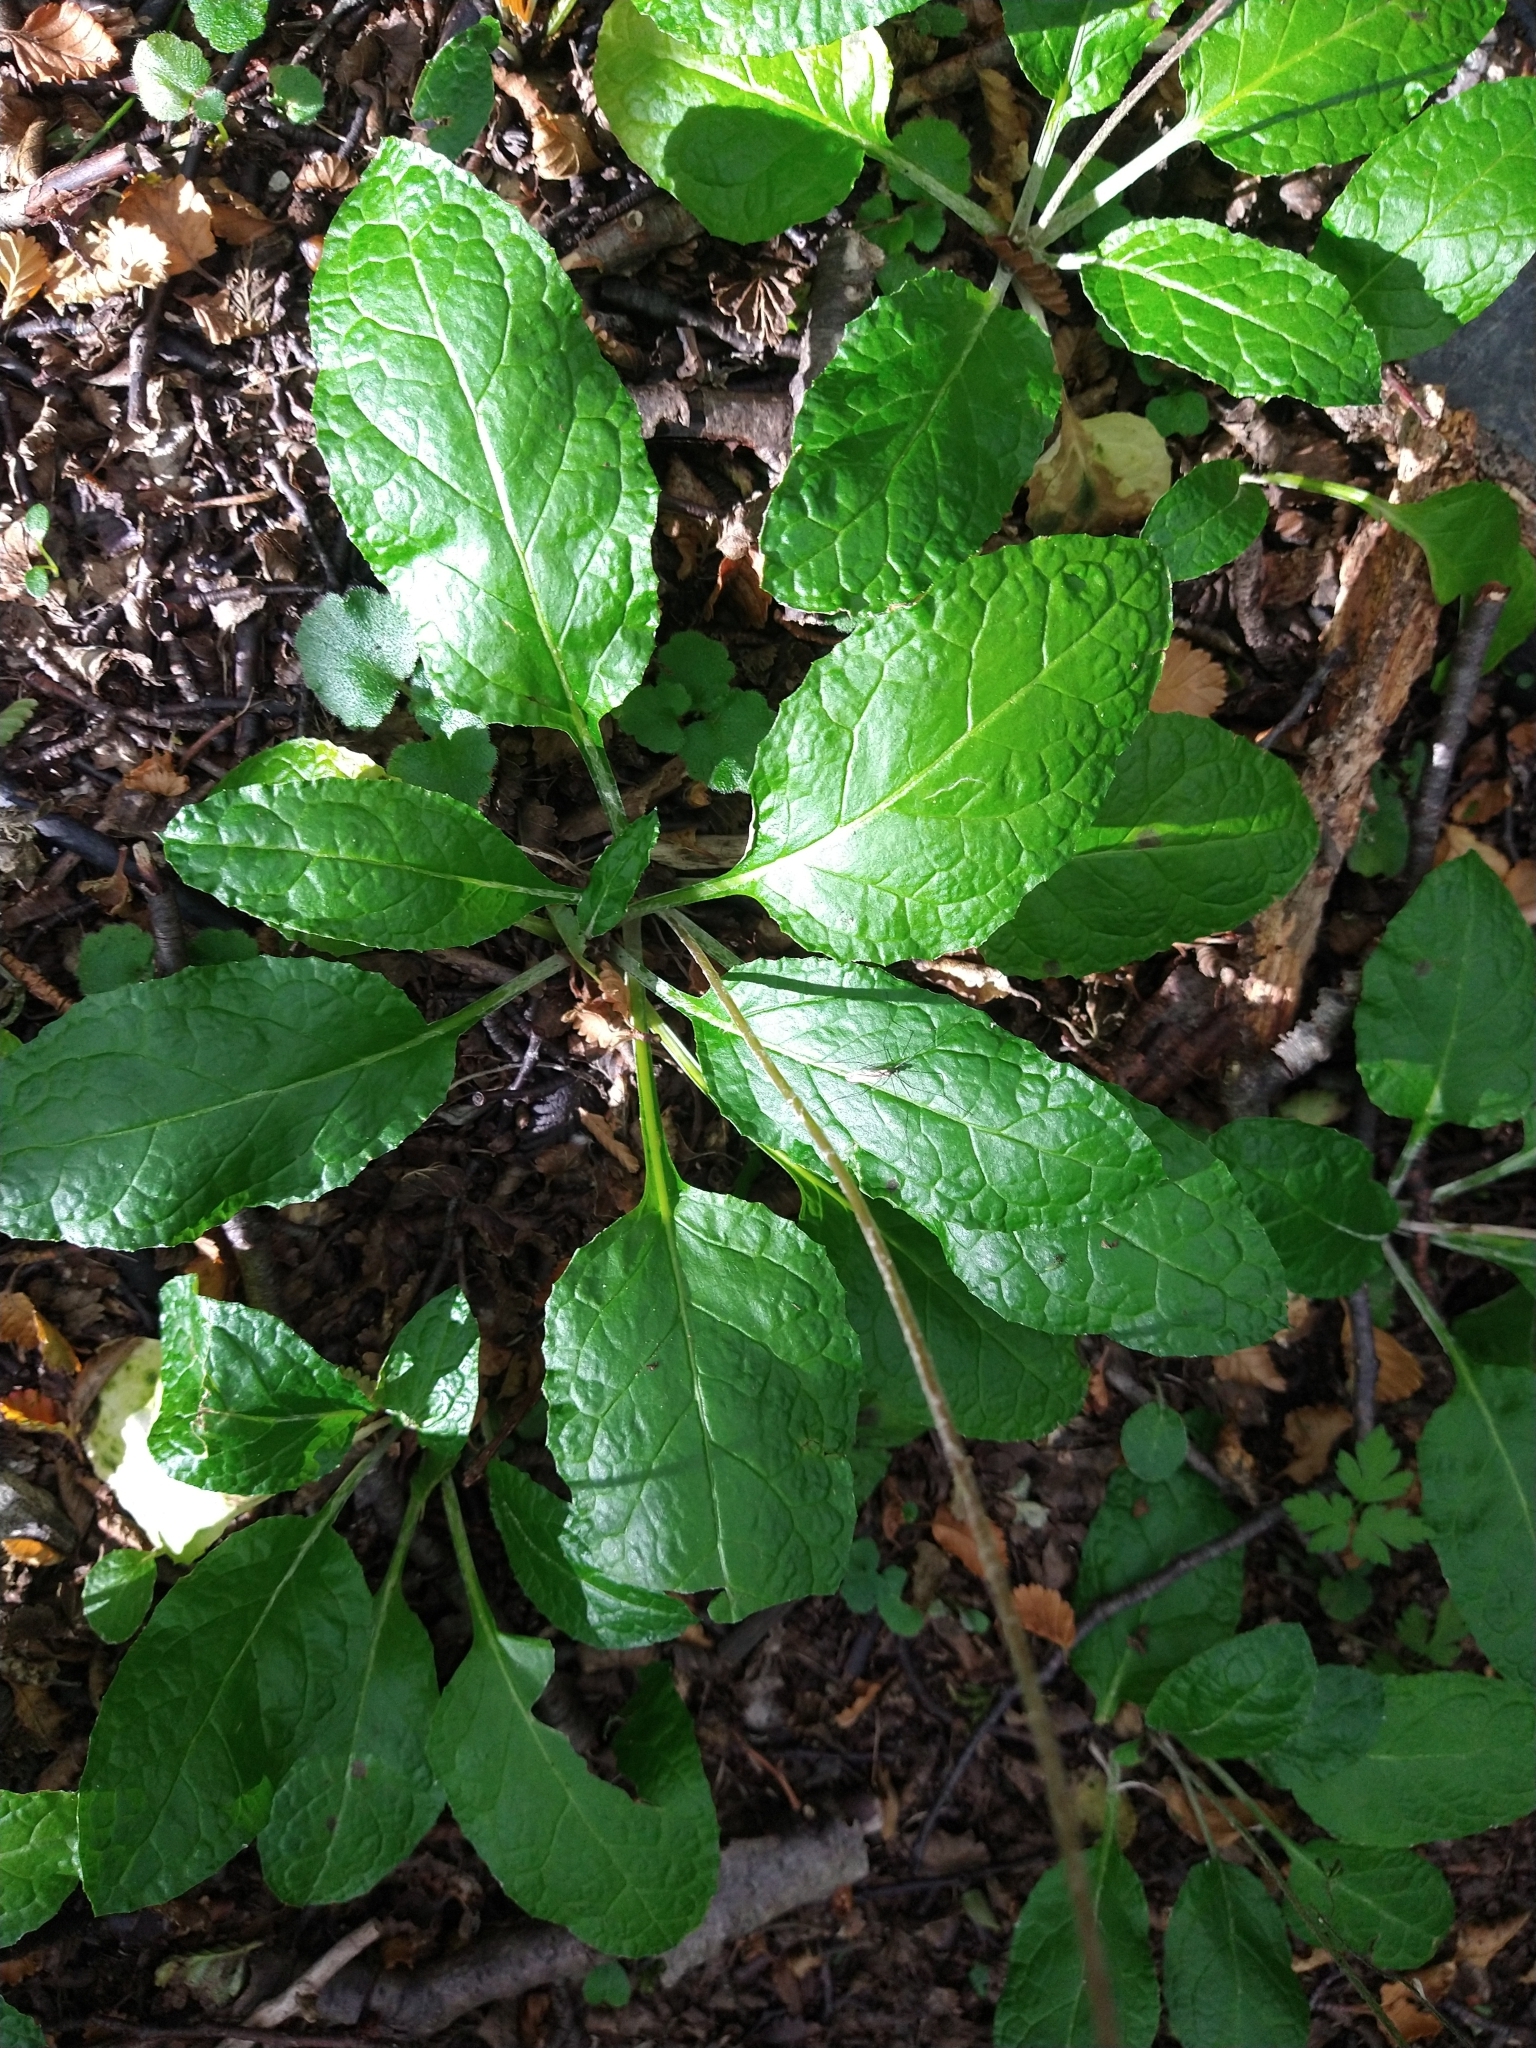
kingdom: Plantae
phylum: Tracheophyta
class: Magnoliopsida
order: Asterales
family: Asteraceae
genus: Adenocaulon
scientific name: Adenocaulon chilense
